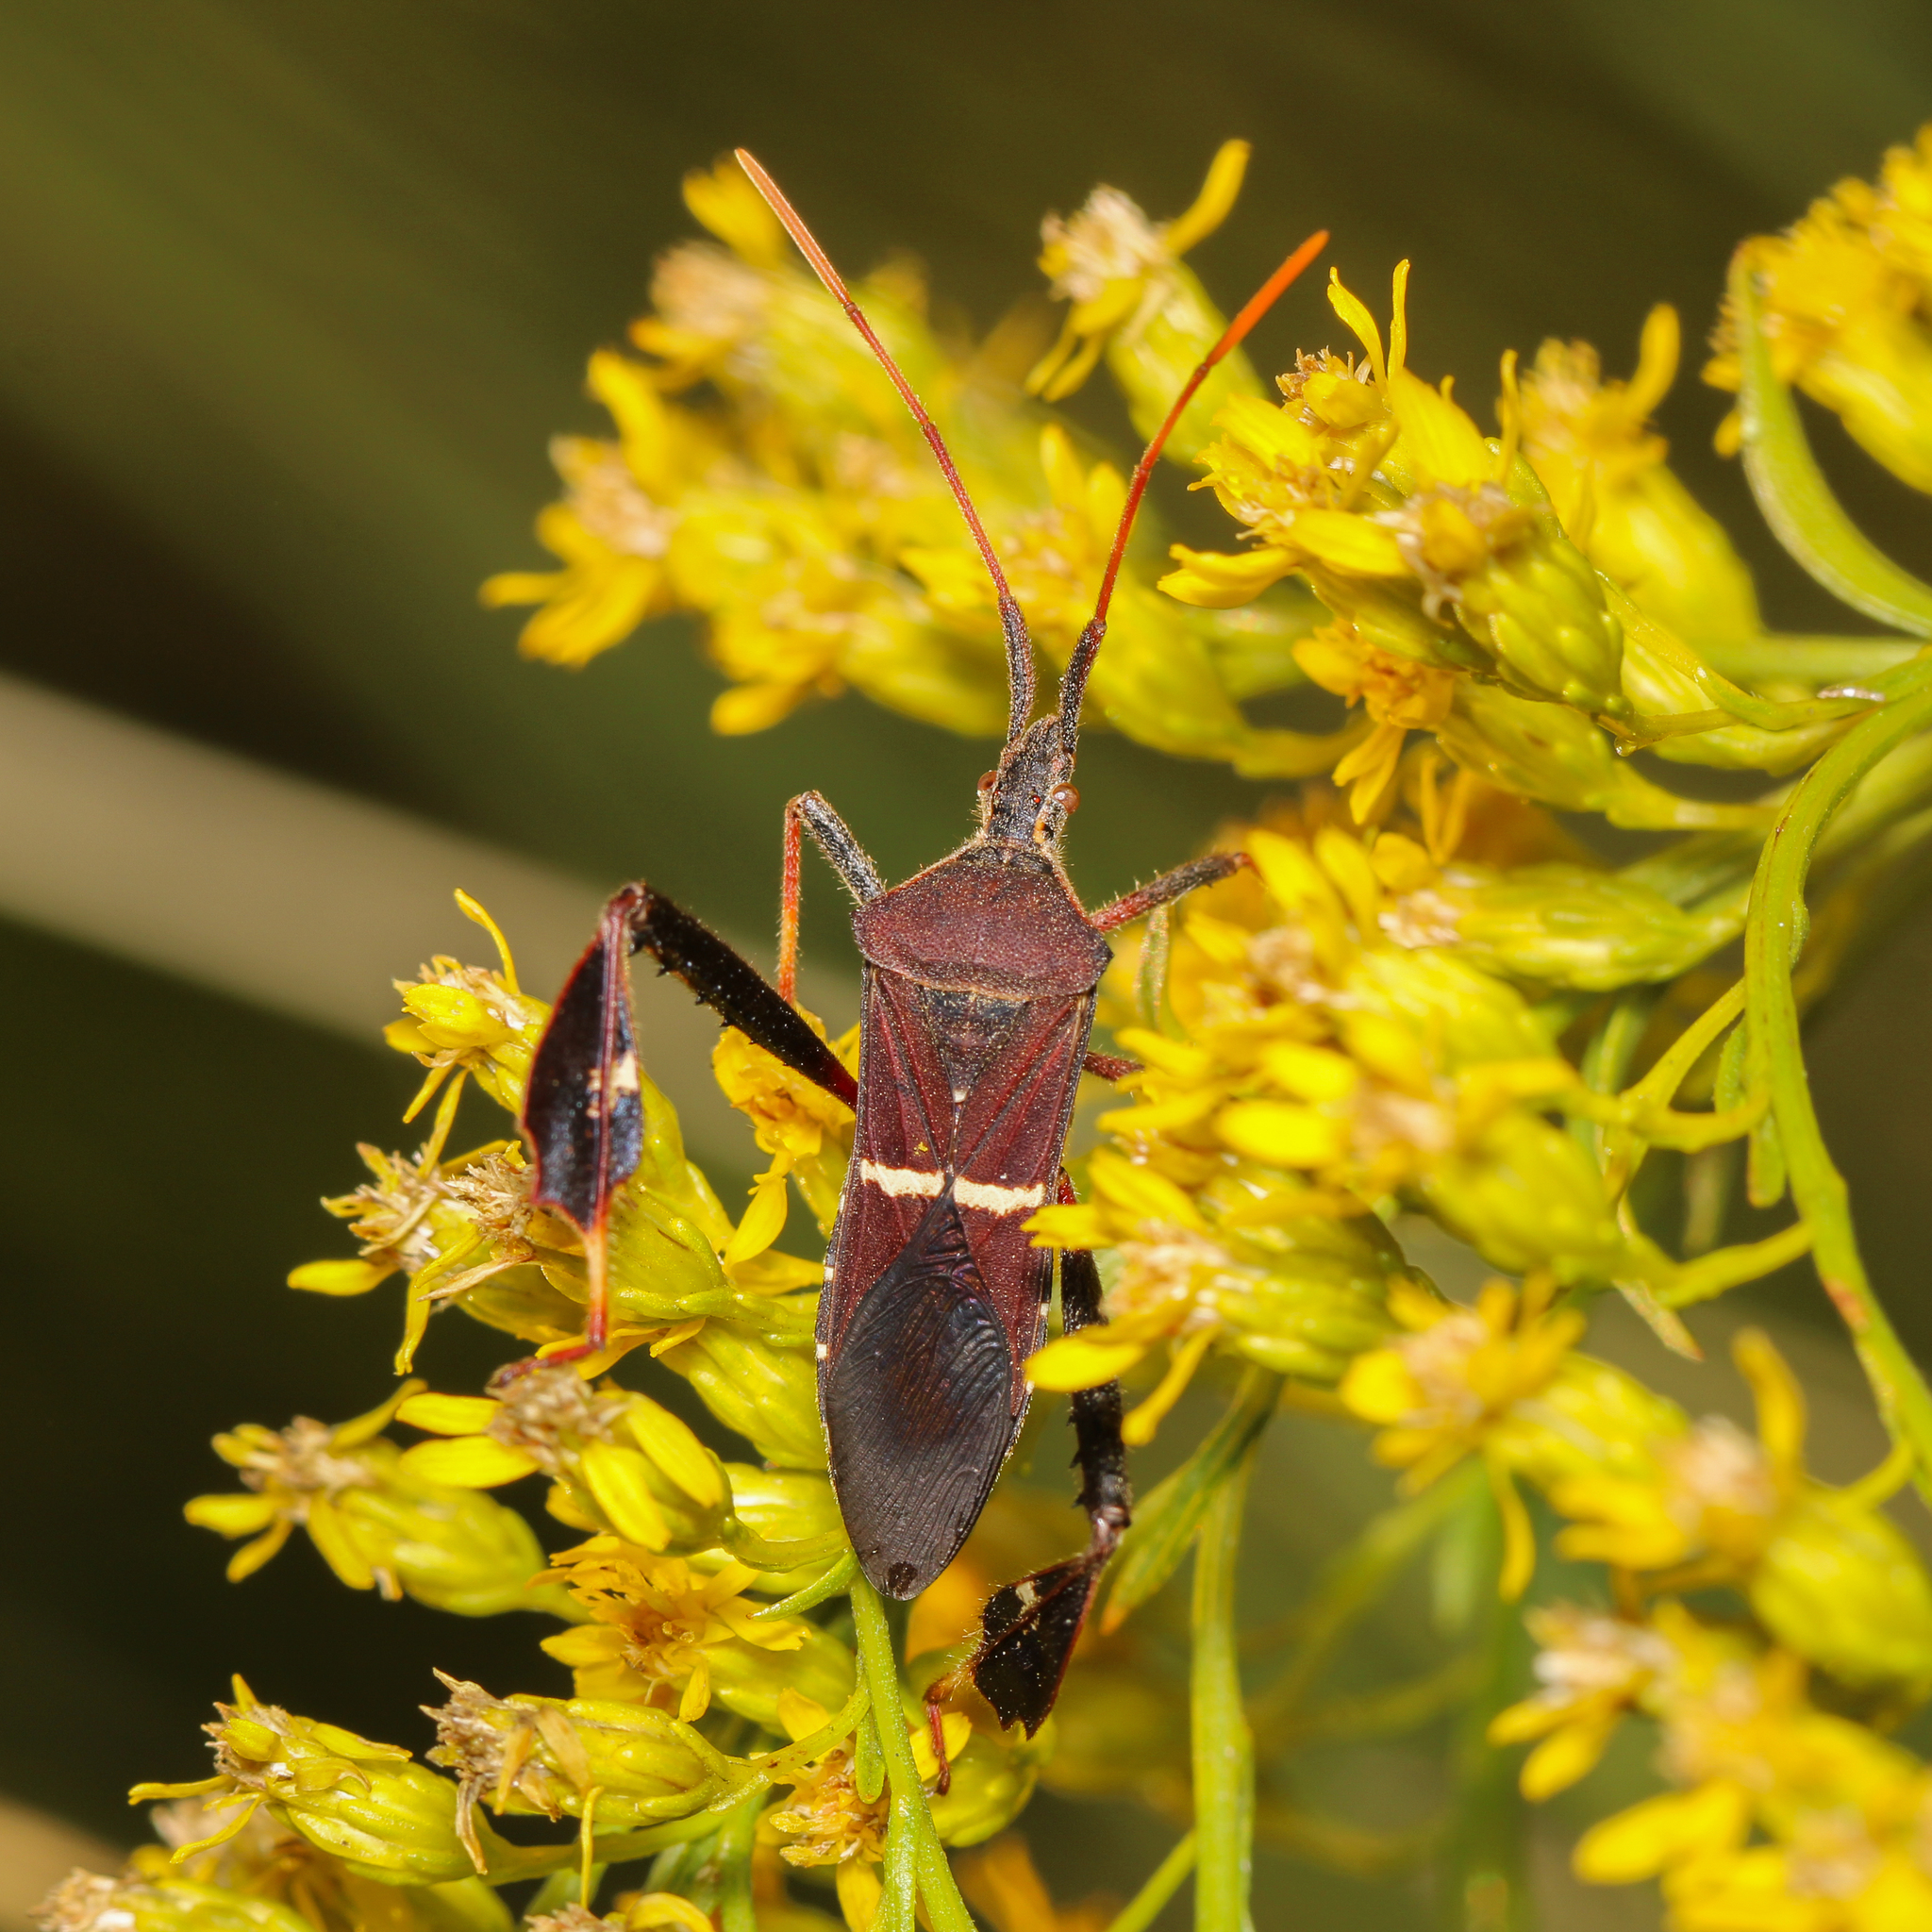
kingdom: Animalia
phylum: Arthropoda
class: Insecta
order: Hemiptera
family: Coreidae
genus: Leptoglossus
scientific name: Leptoglossus phyllopus
